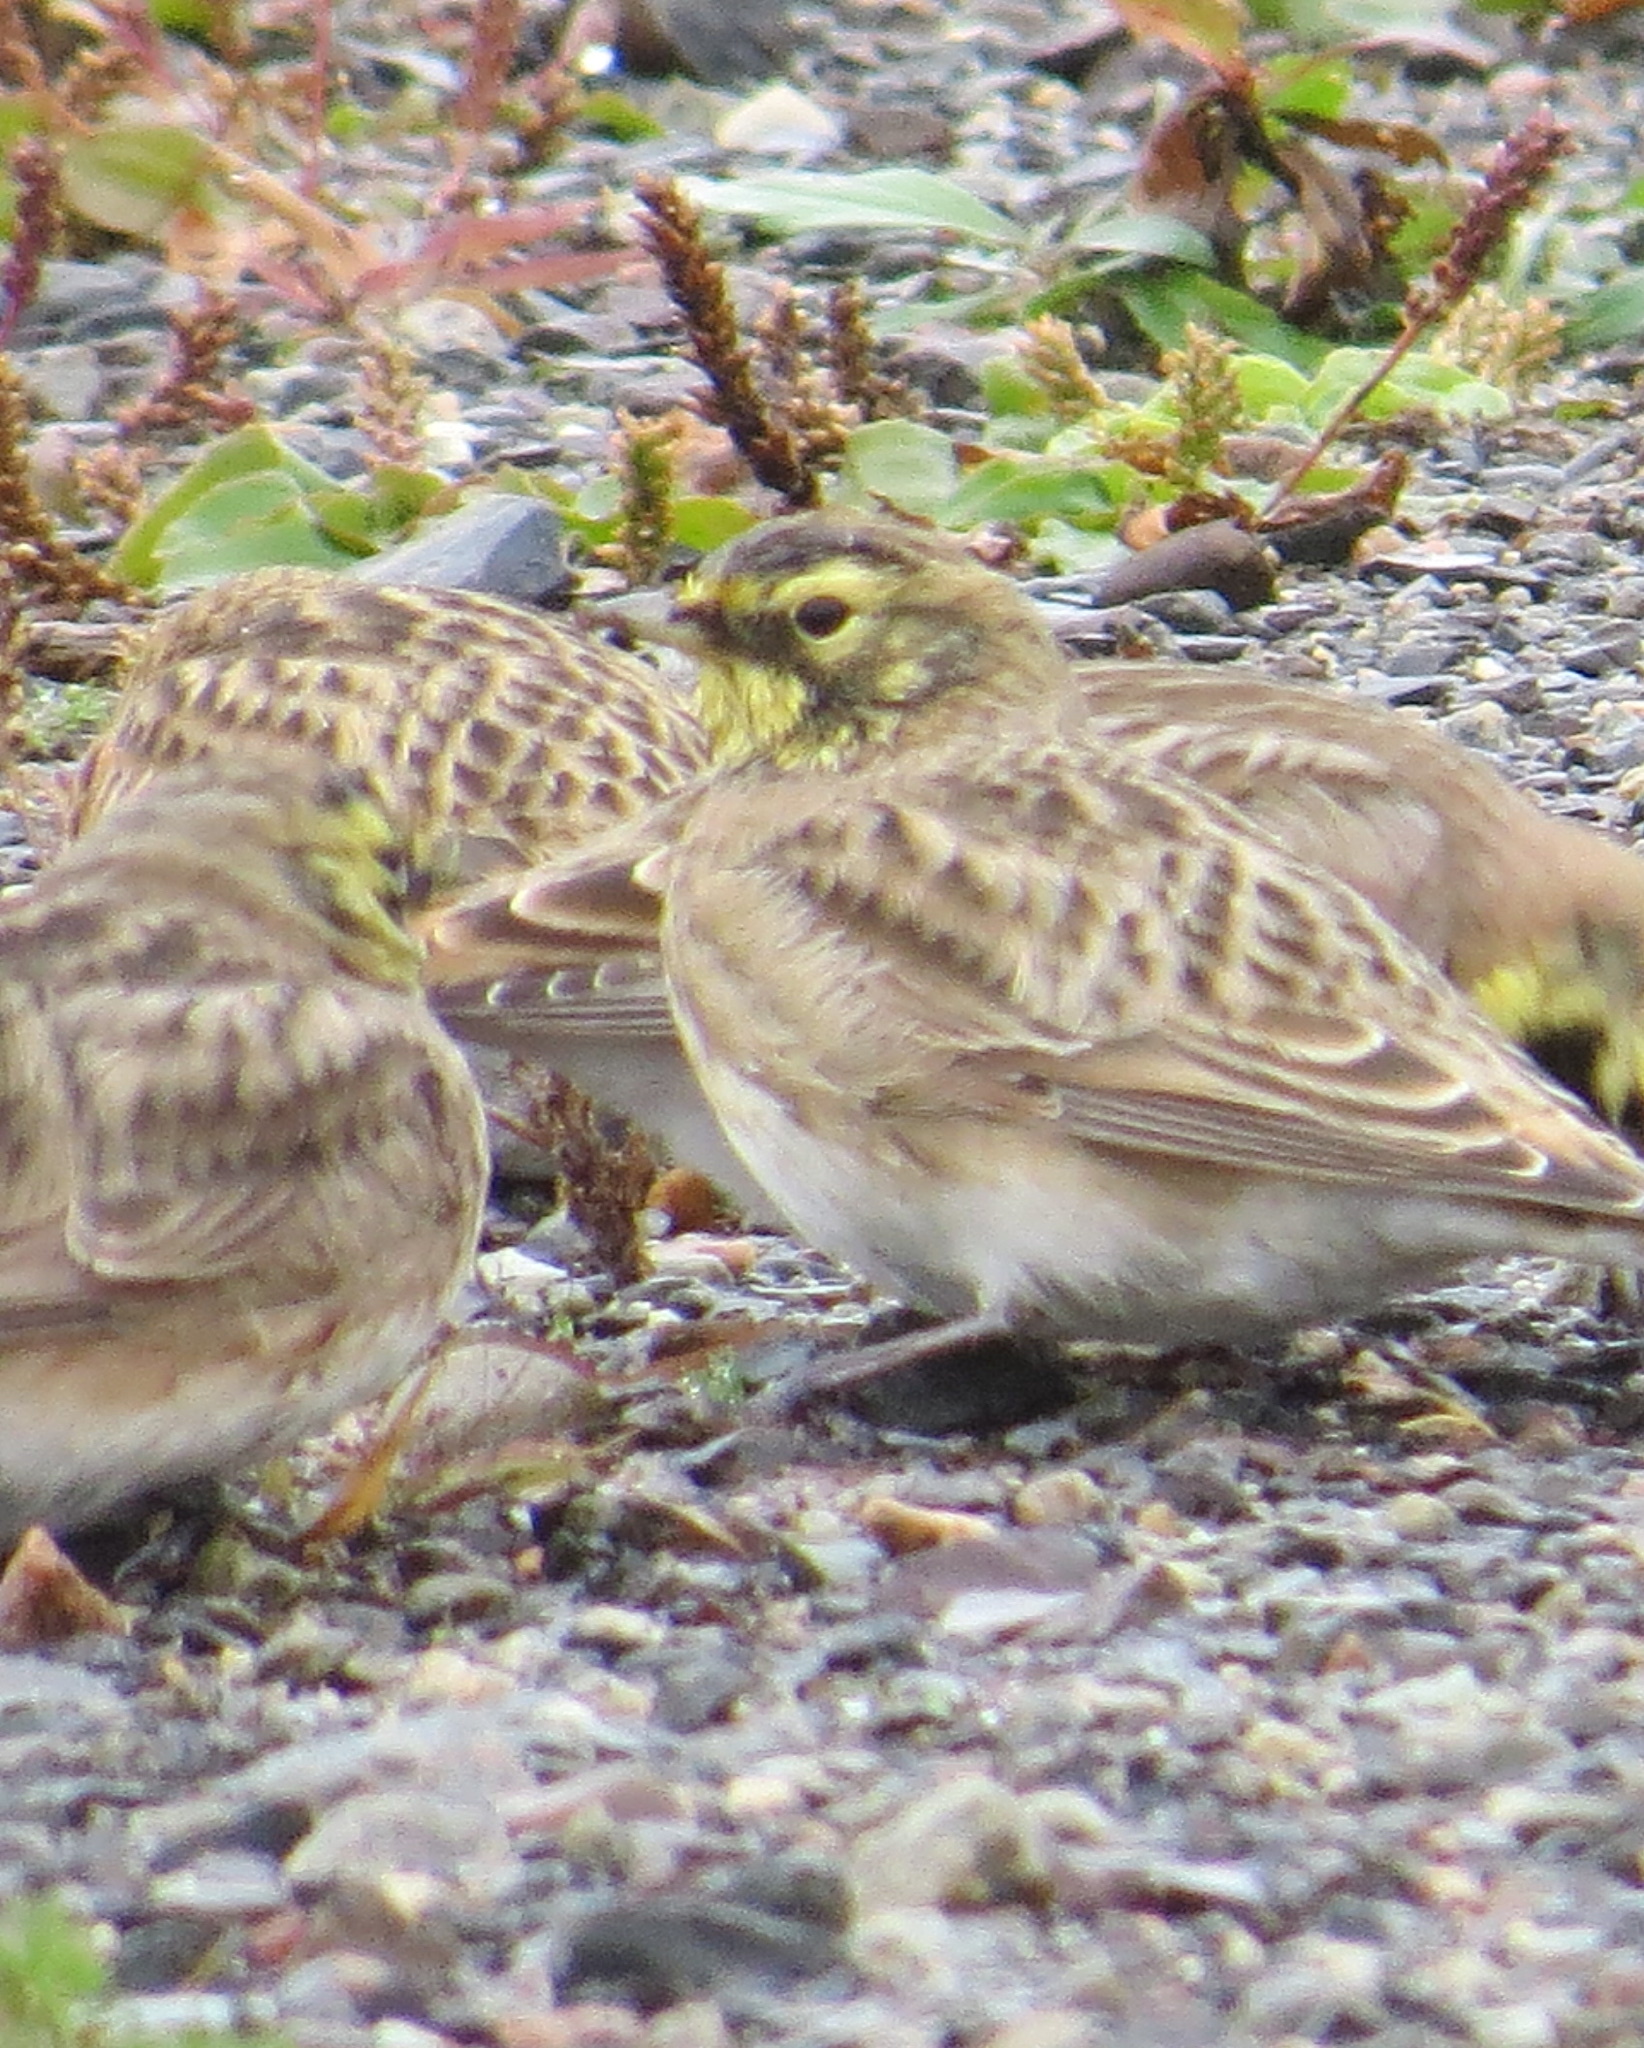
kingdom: Animalia
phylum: Chordata
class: Aves
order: Passeriformes
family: Alaudidae
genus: Eremophila
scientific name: Eremophila alpestris
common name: Horned lark
